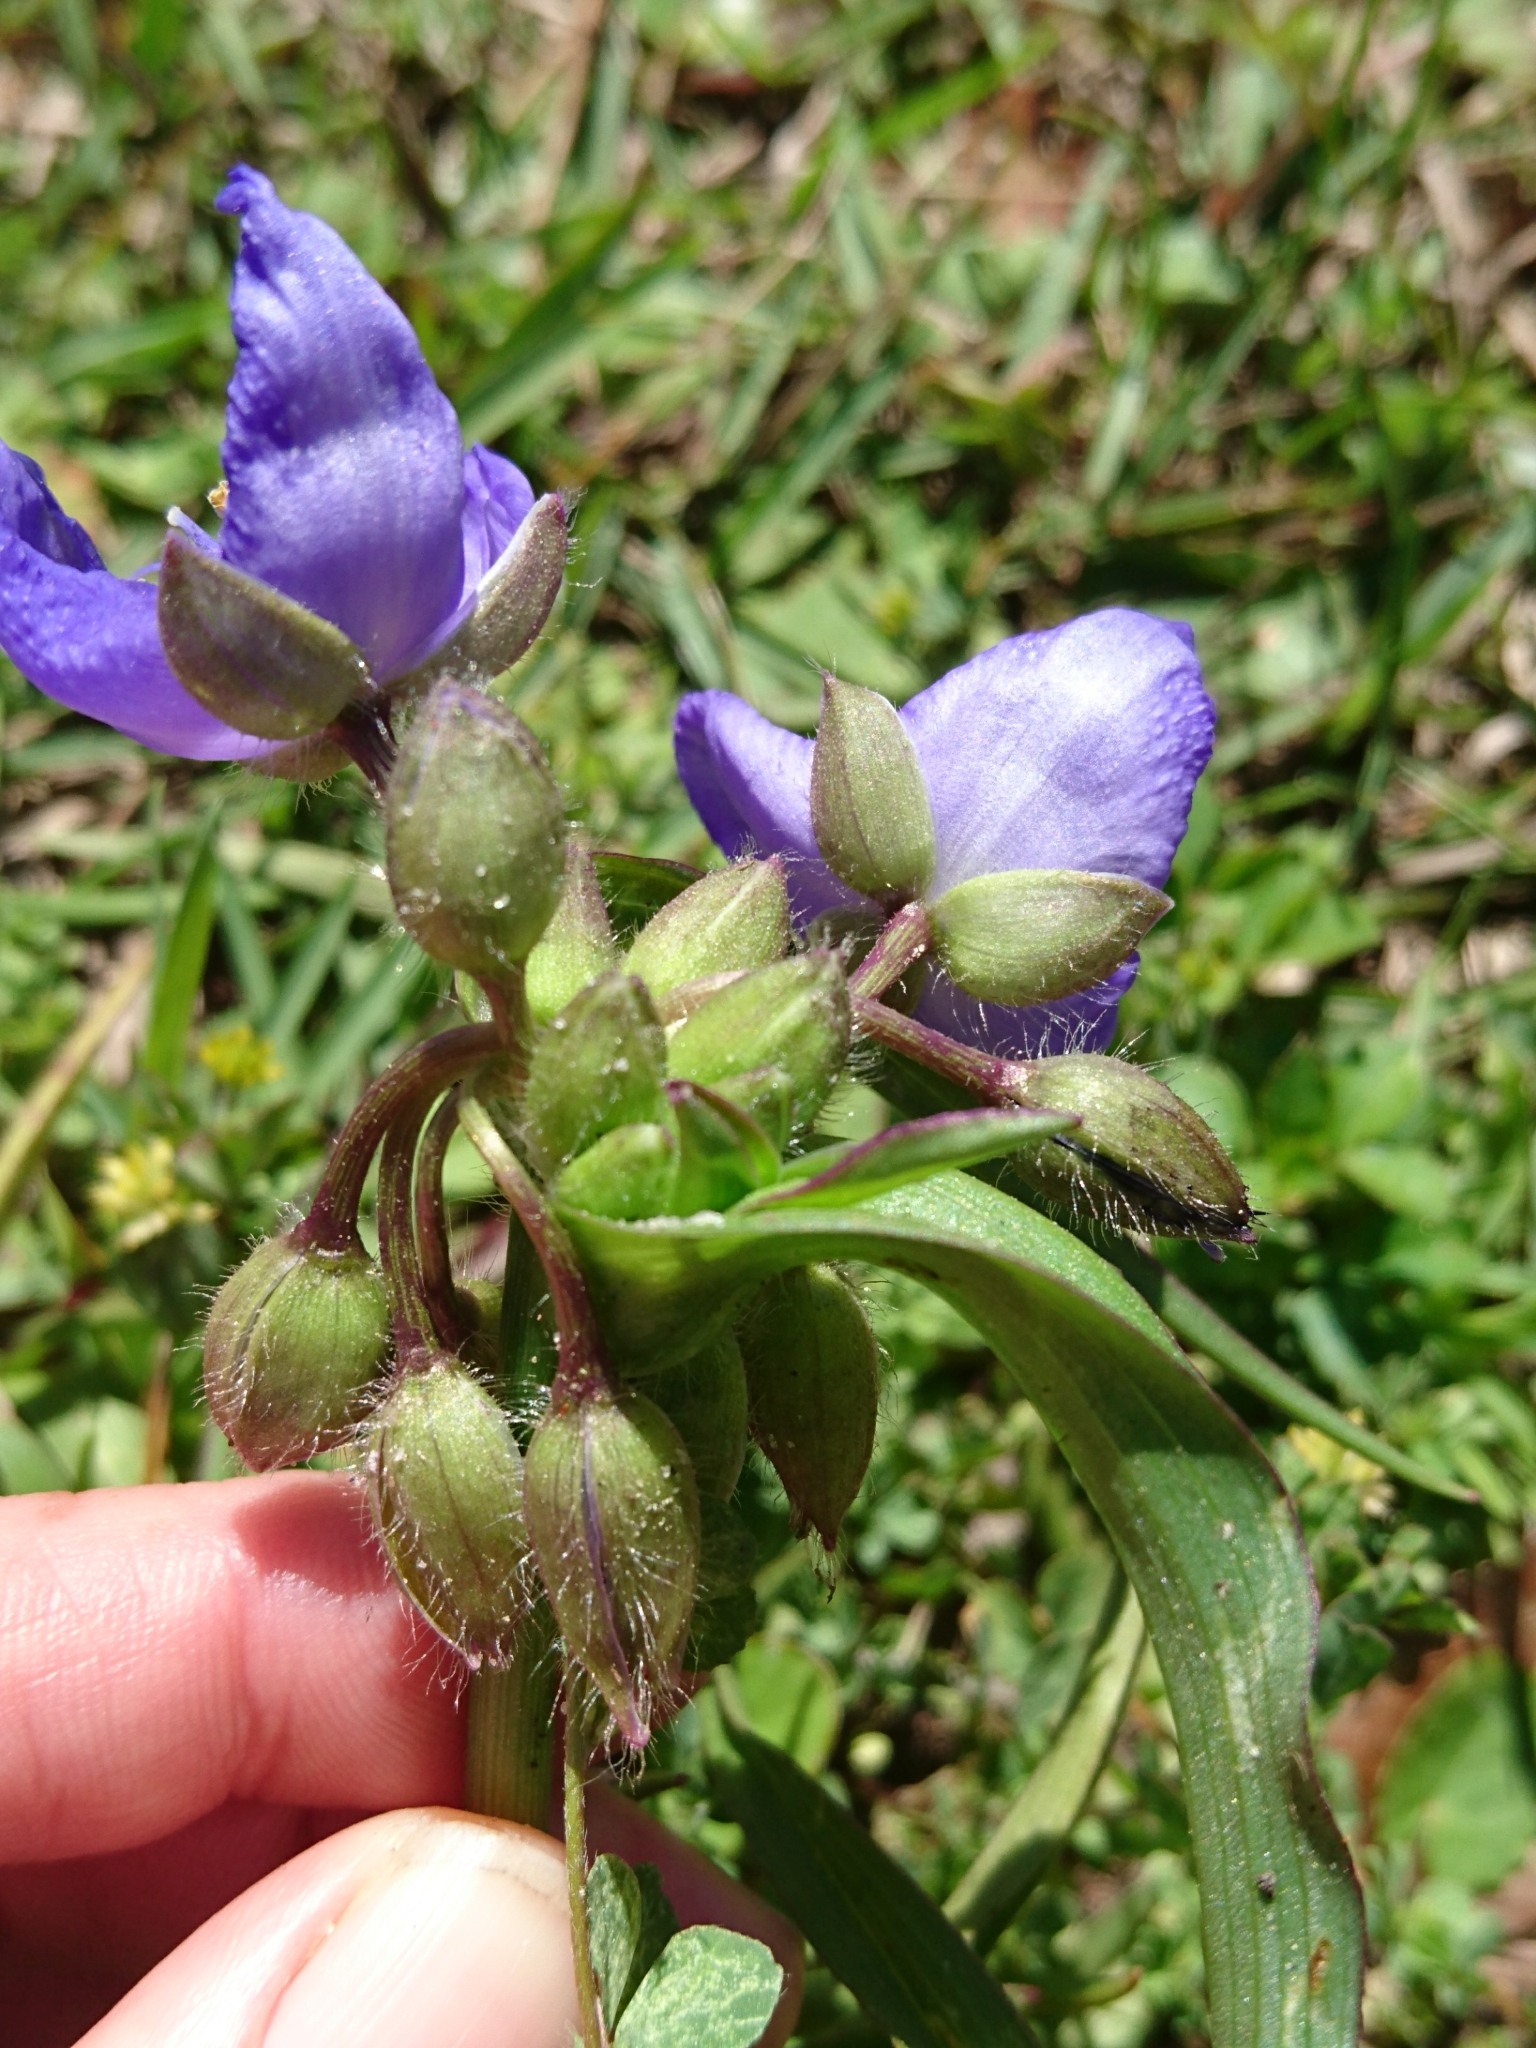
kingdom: Plantae
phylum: Tracheophyta
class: Liliopsida
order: Commelinales
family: Commelinaceae
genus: Tradescantia
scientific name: Tradescantia virginiana
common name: Spiderwort
